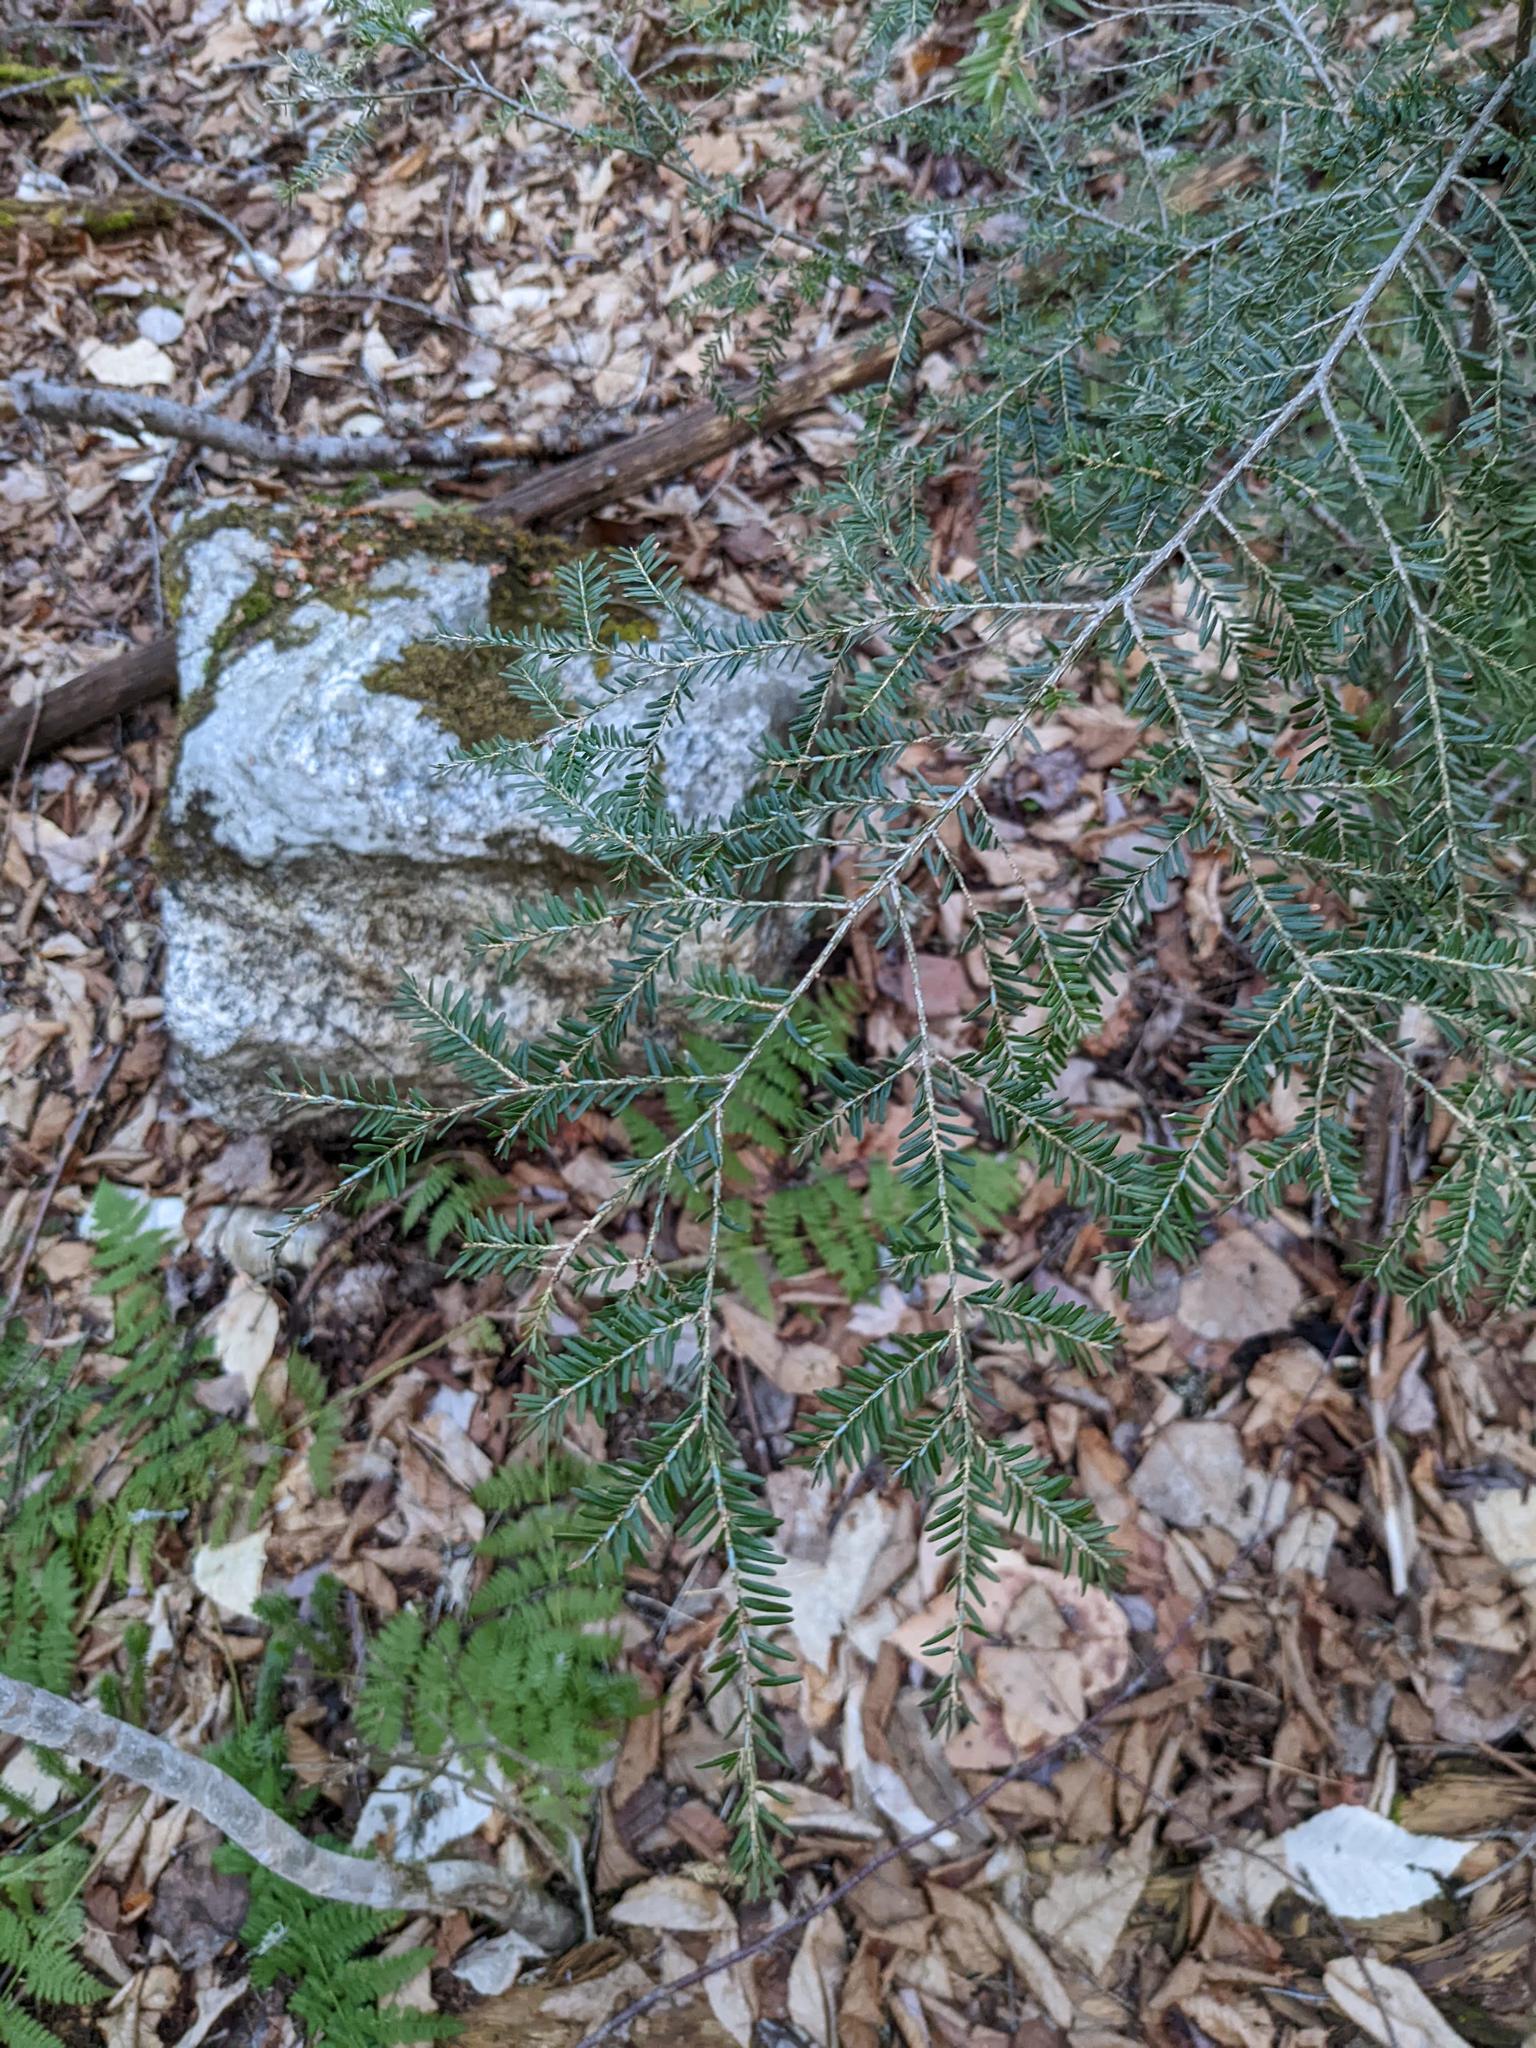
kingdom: Plantae
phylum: Tracheophyta
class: Pinopsida
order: Pinales
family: Pinaceae
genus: Tsuga
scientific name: Tsuga canadensis
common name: Eastern hemlock
